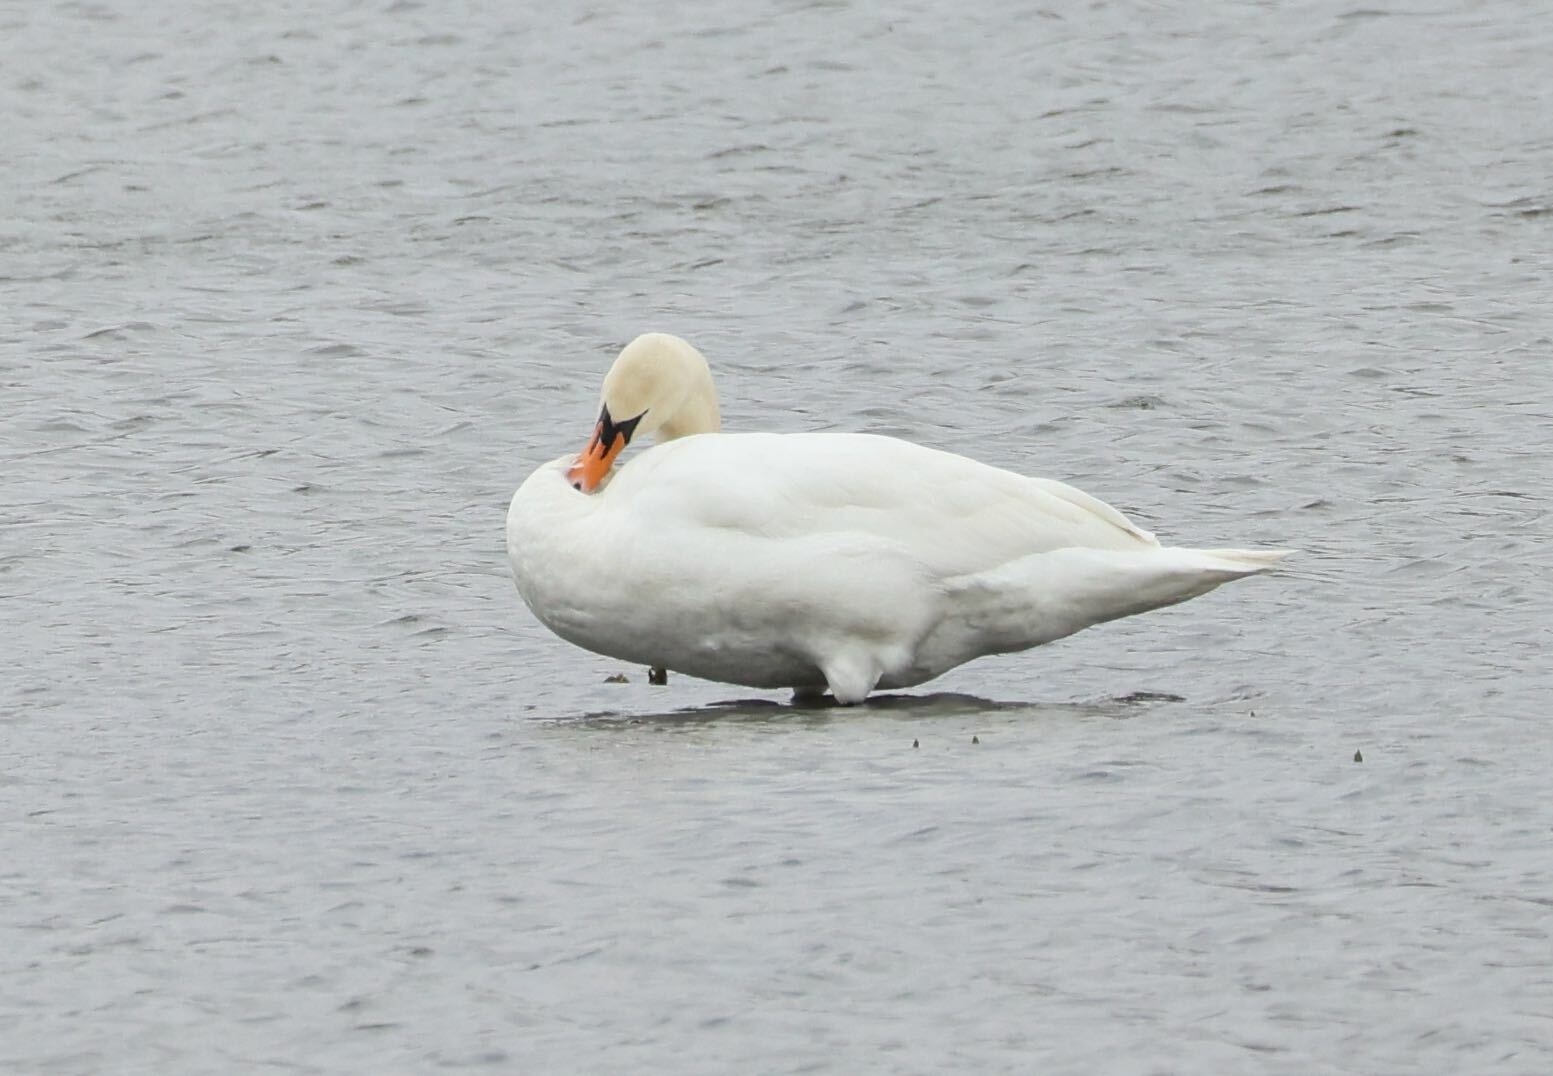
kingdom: Animalia
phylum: Chordata
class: Aves
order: Anseriformes
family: Anatidae
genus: Cygnus
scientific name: Cygnus olor
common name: Mute swan
